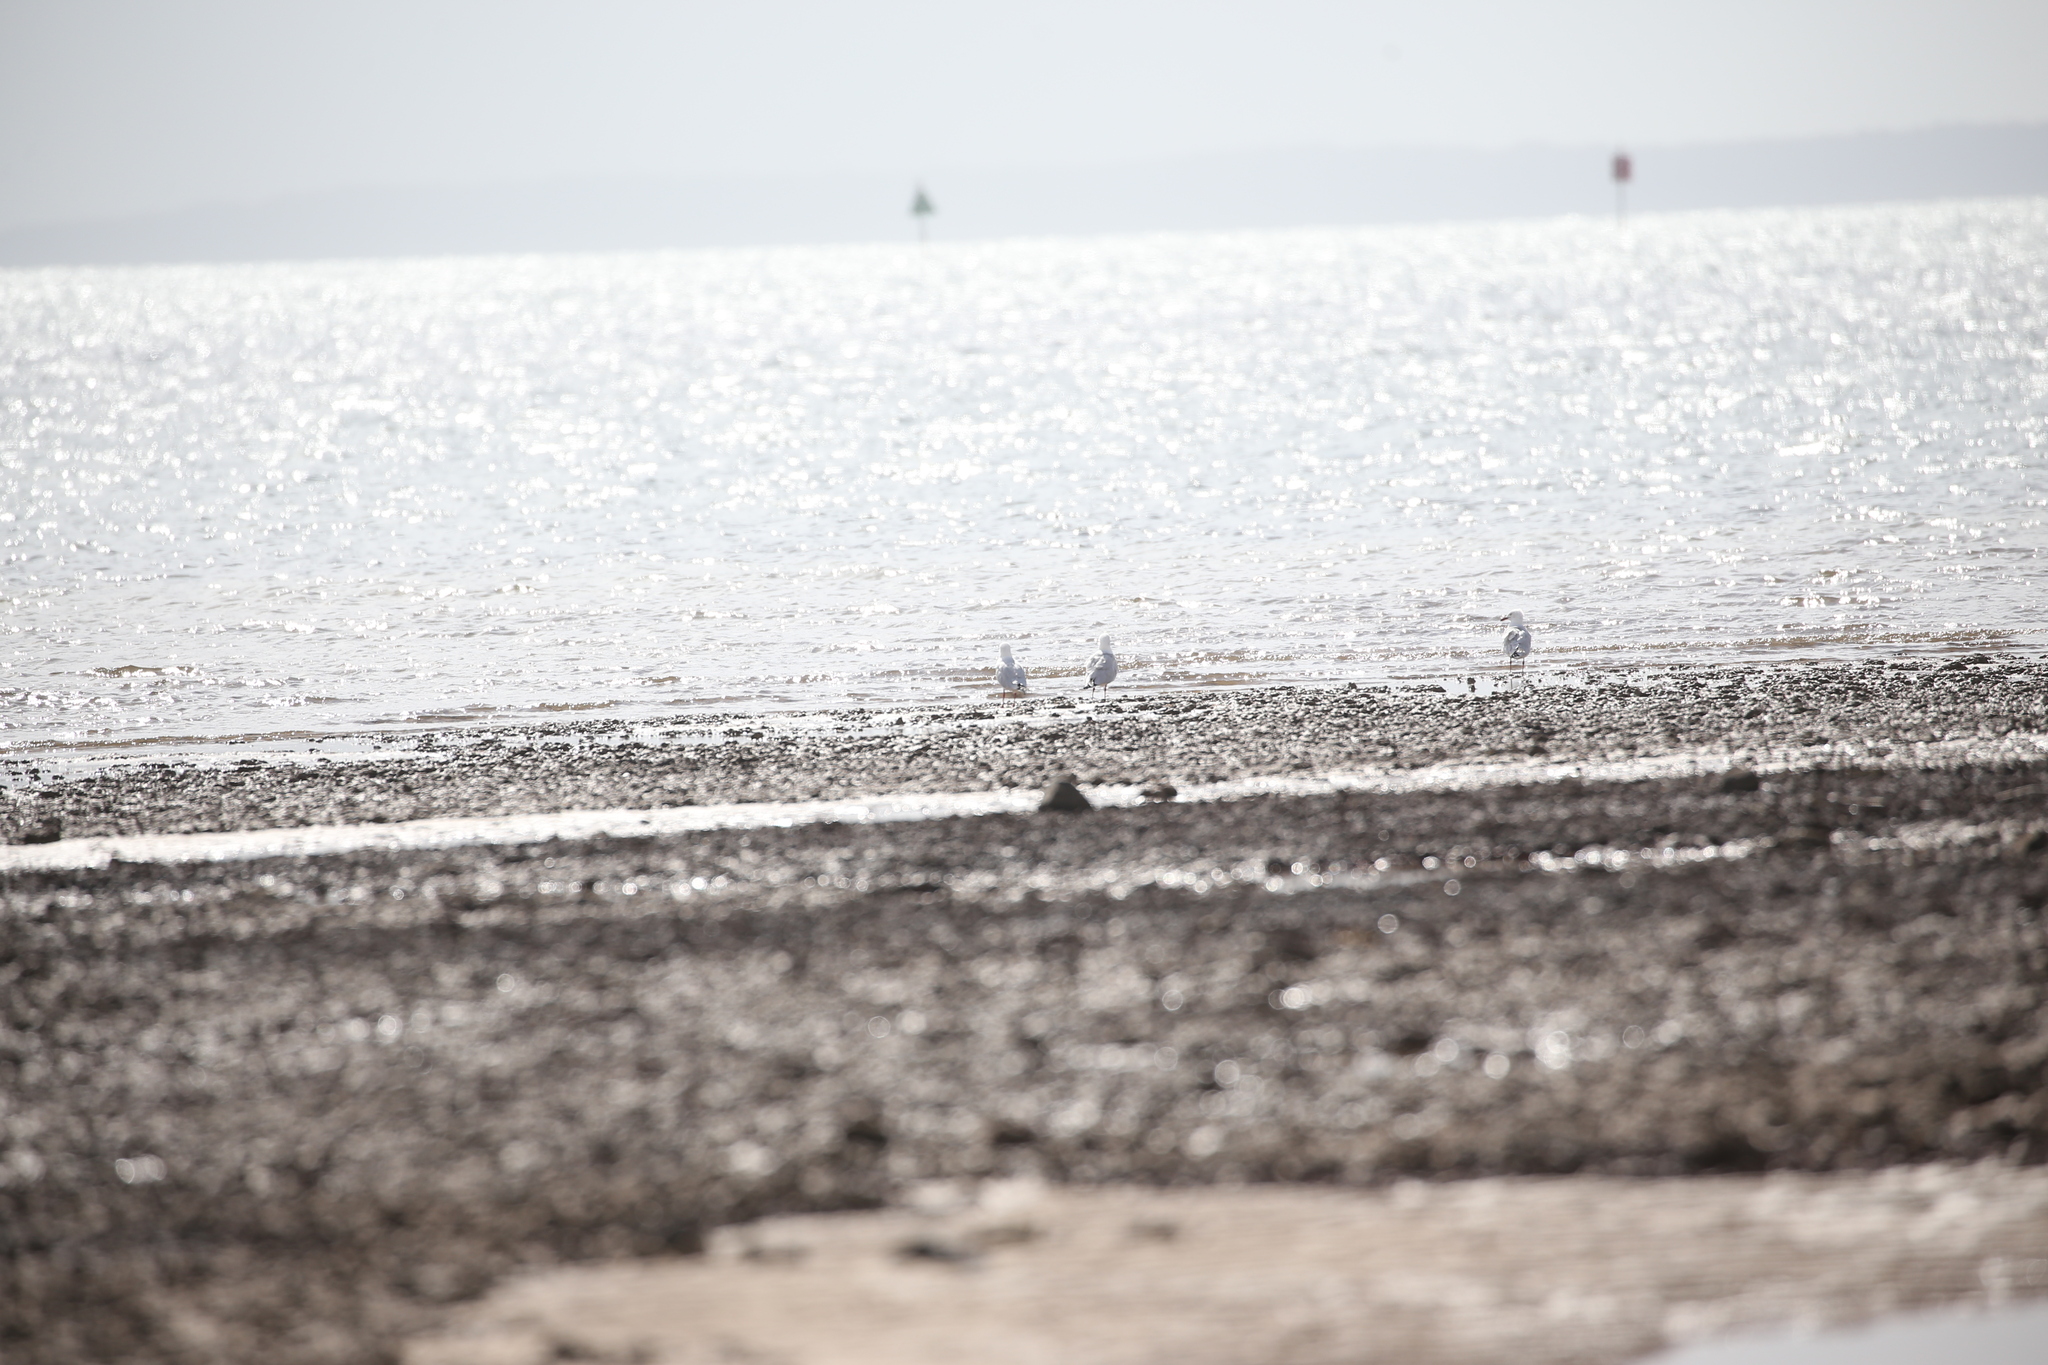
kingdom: Animalia
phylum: Chordata
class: Aves
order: Charadriiformes
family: Laridae
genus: Chroicocephalus
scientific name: Chroicocephalus novaehollandiae
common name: Silver gull
